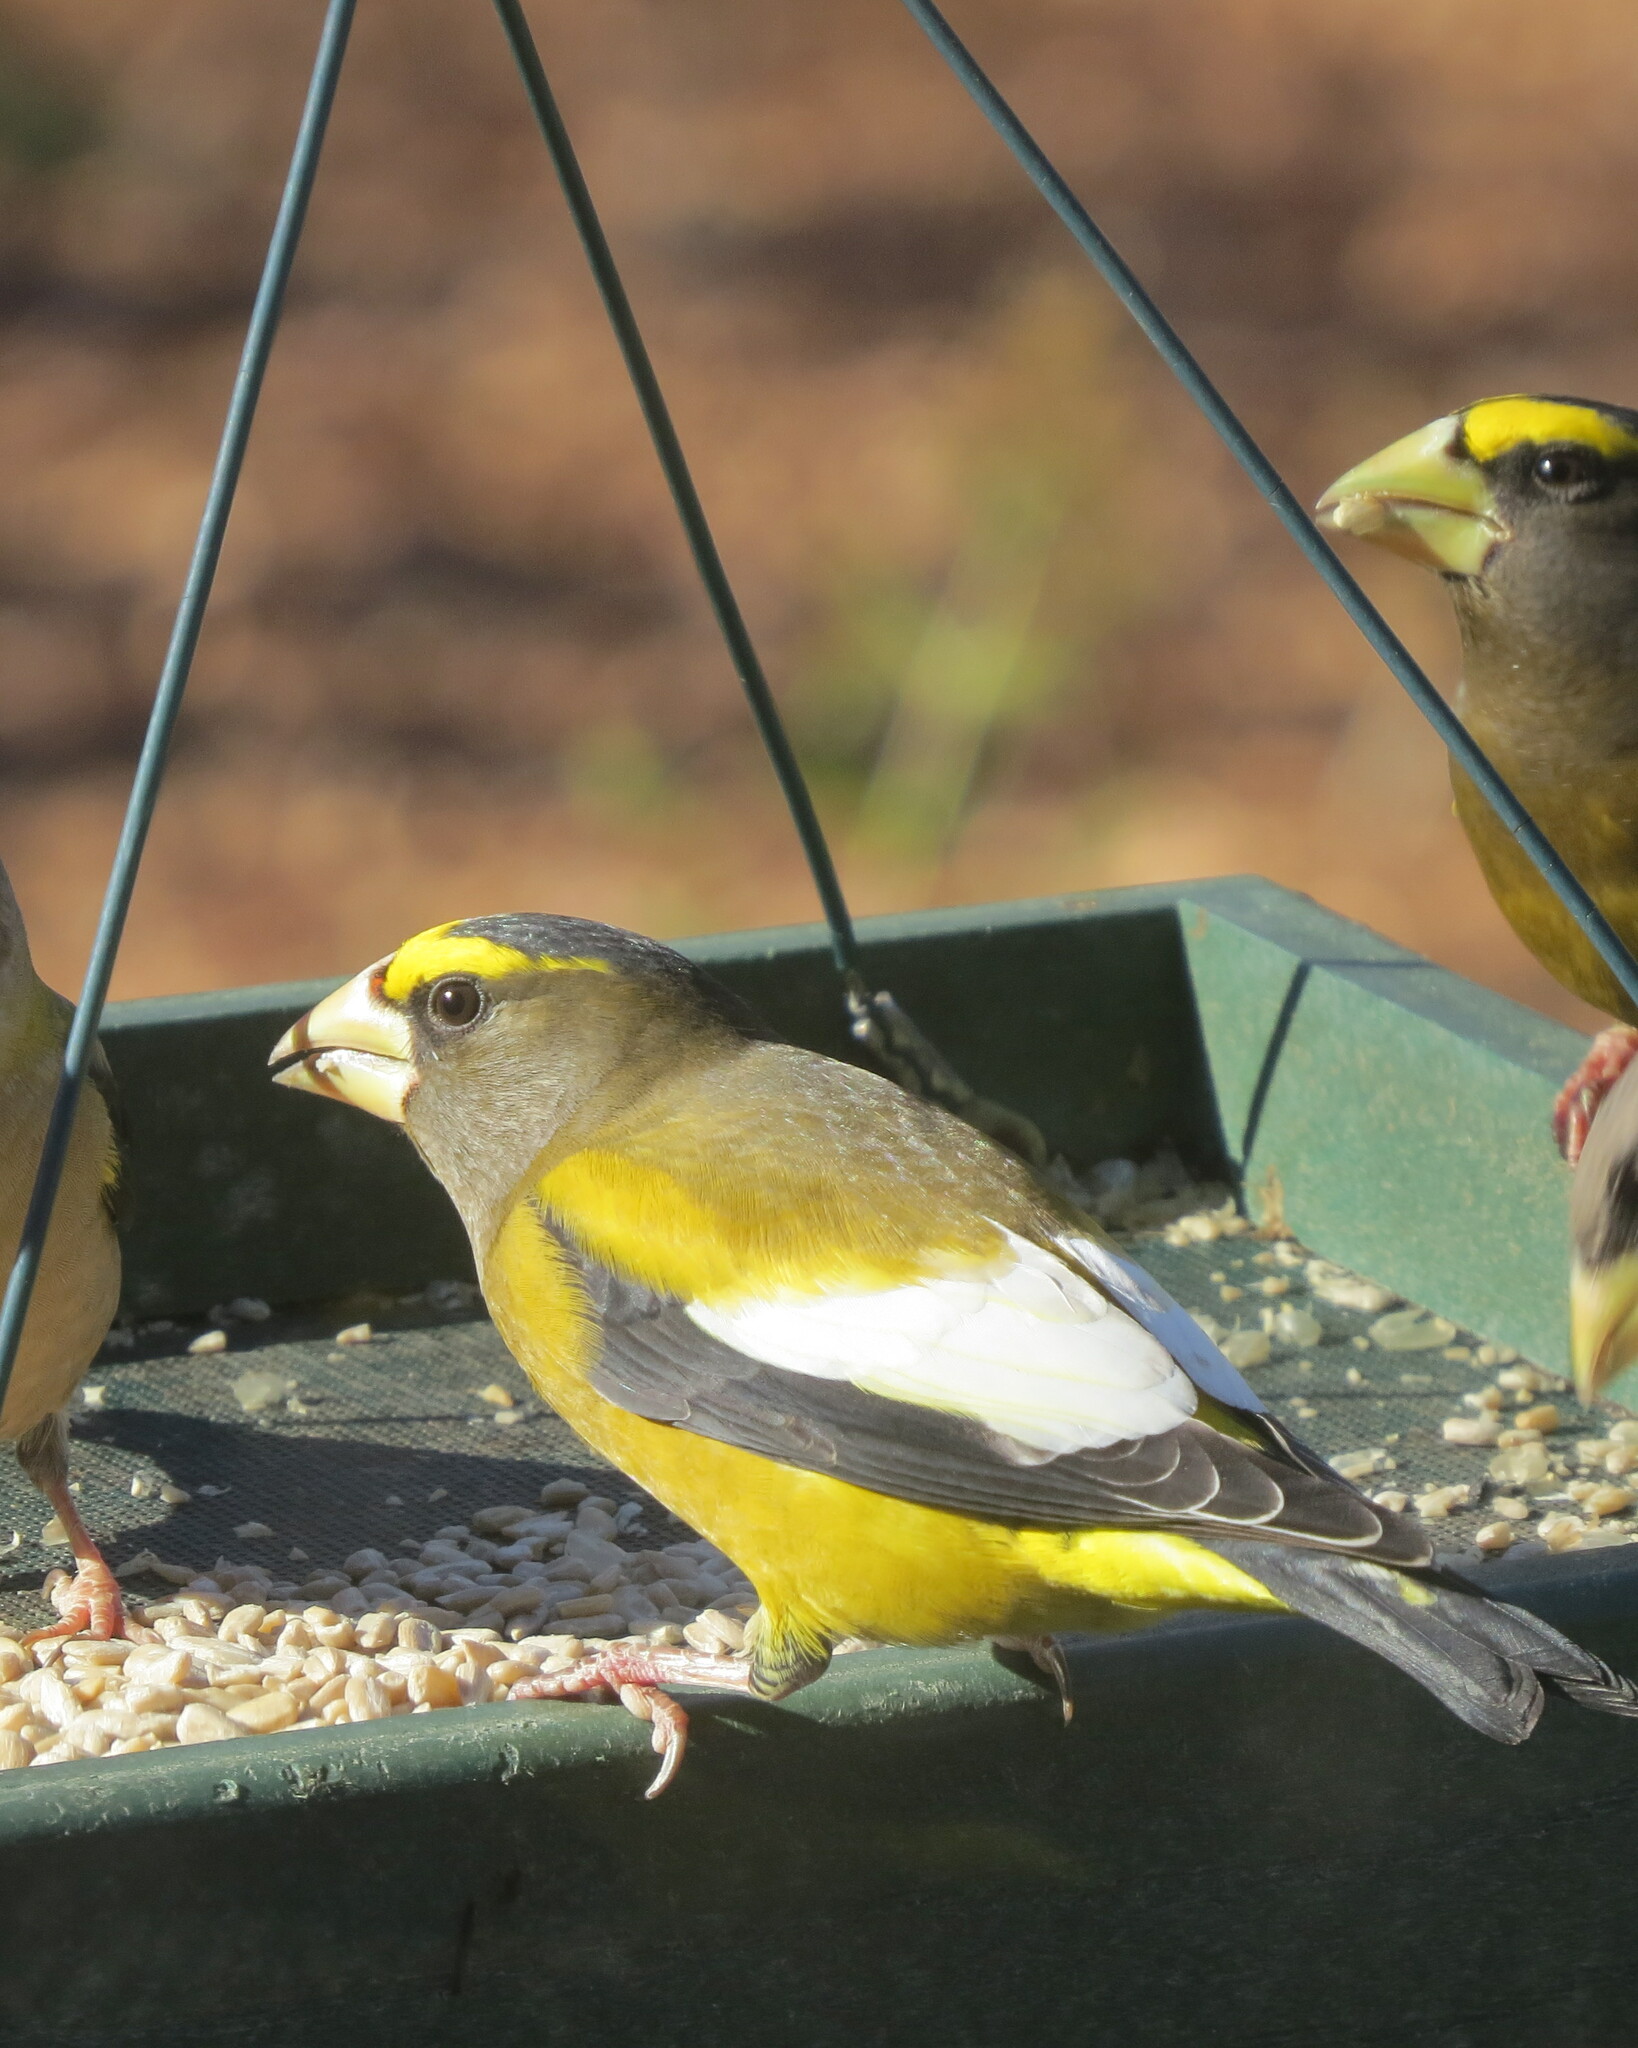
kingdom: Animalia
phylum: Chordata
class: Aves
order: Passeriformes
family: Fringillidae
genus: Hesperiphona
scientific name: Hesperiphona vespertina
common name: Evening grosbeak
